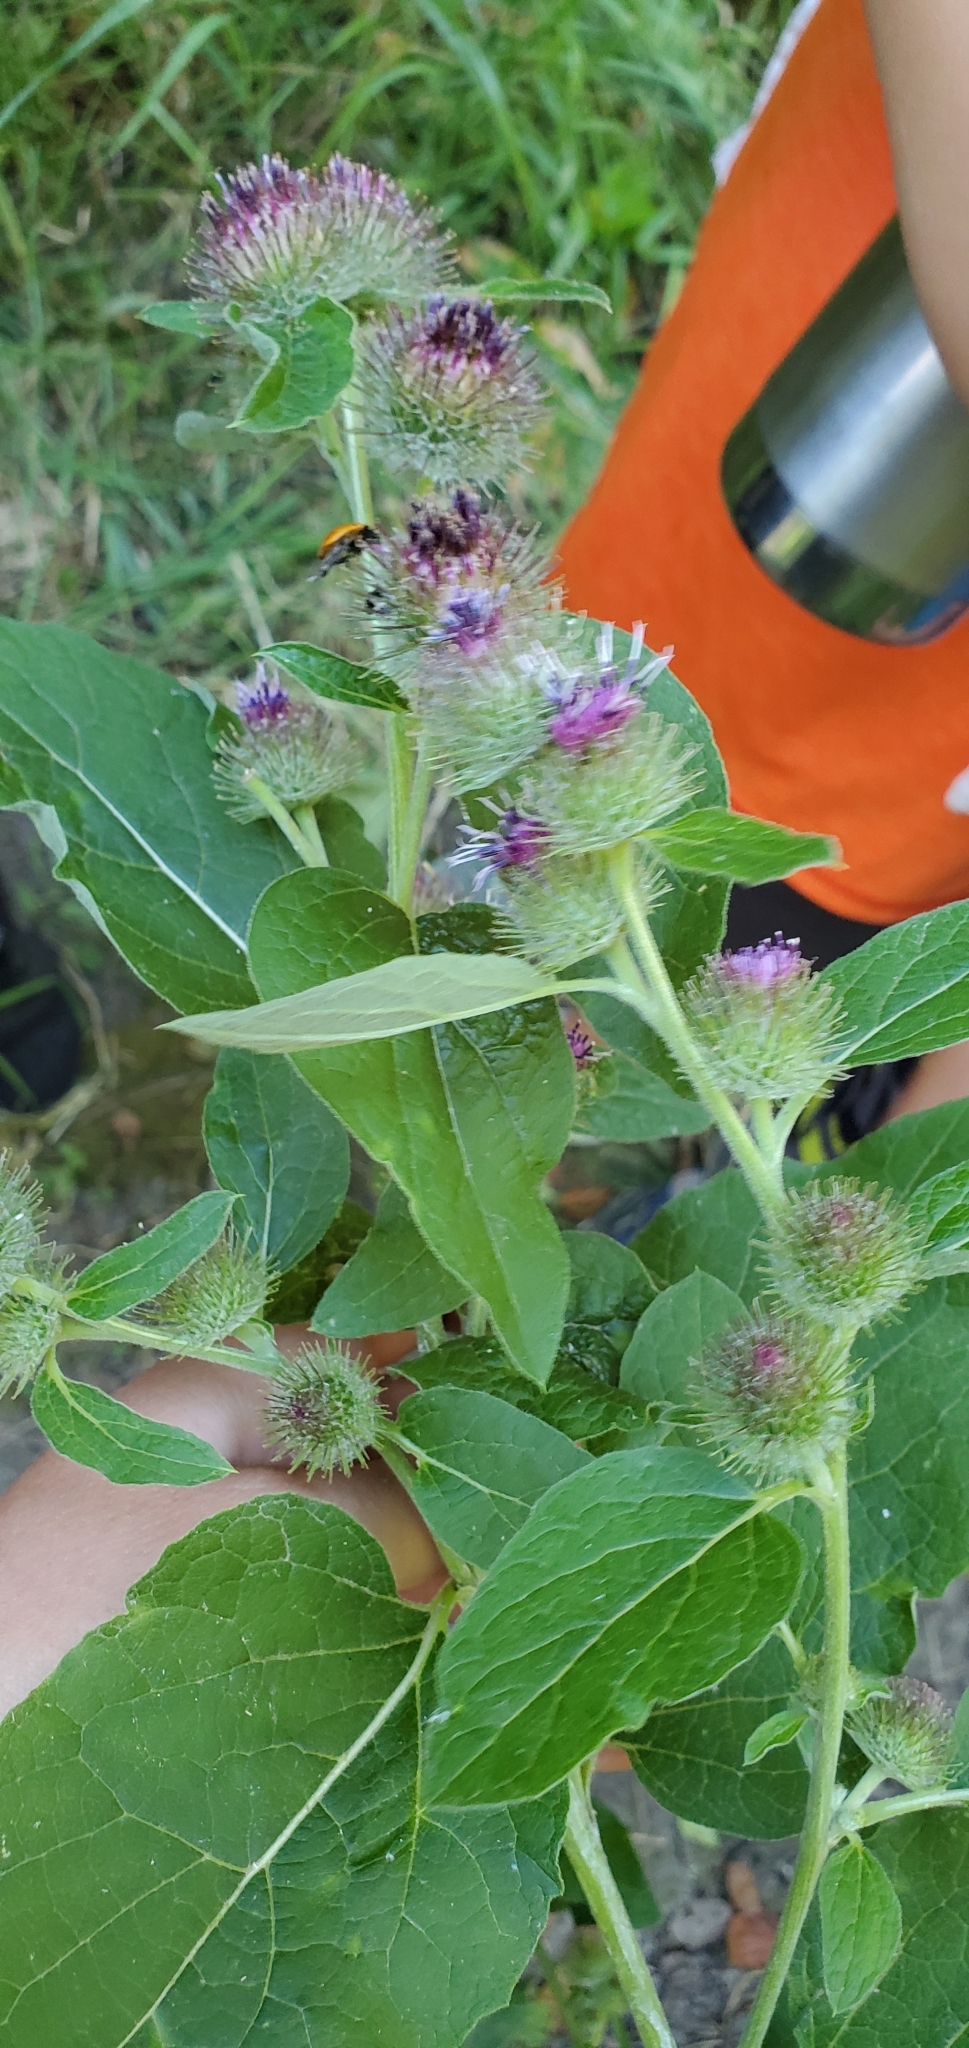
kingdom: Plantae
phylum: Tracheophyta
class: Magnoliopsida
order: Asterales
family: Asteraceae
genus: Arctium
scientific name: Arctium minus
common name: Lesser burdock
